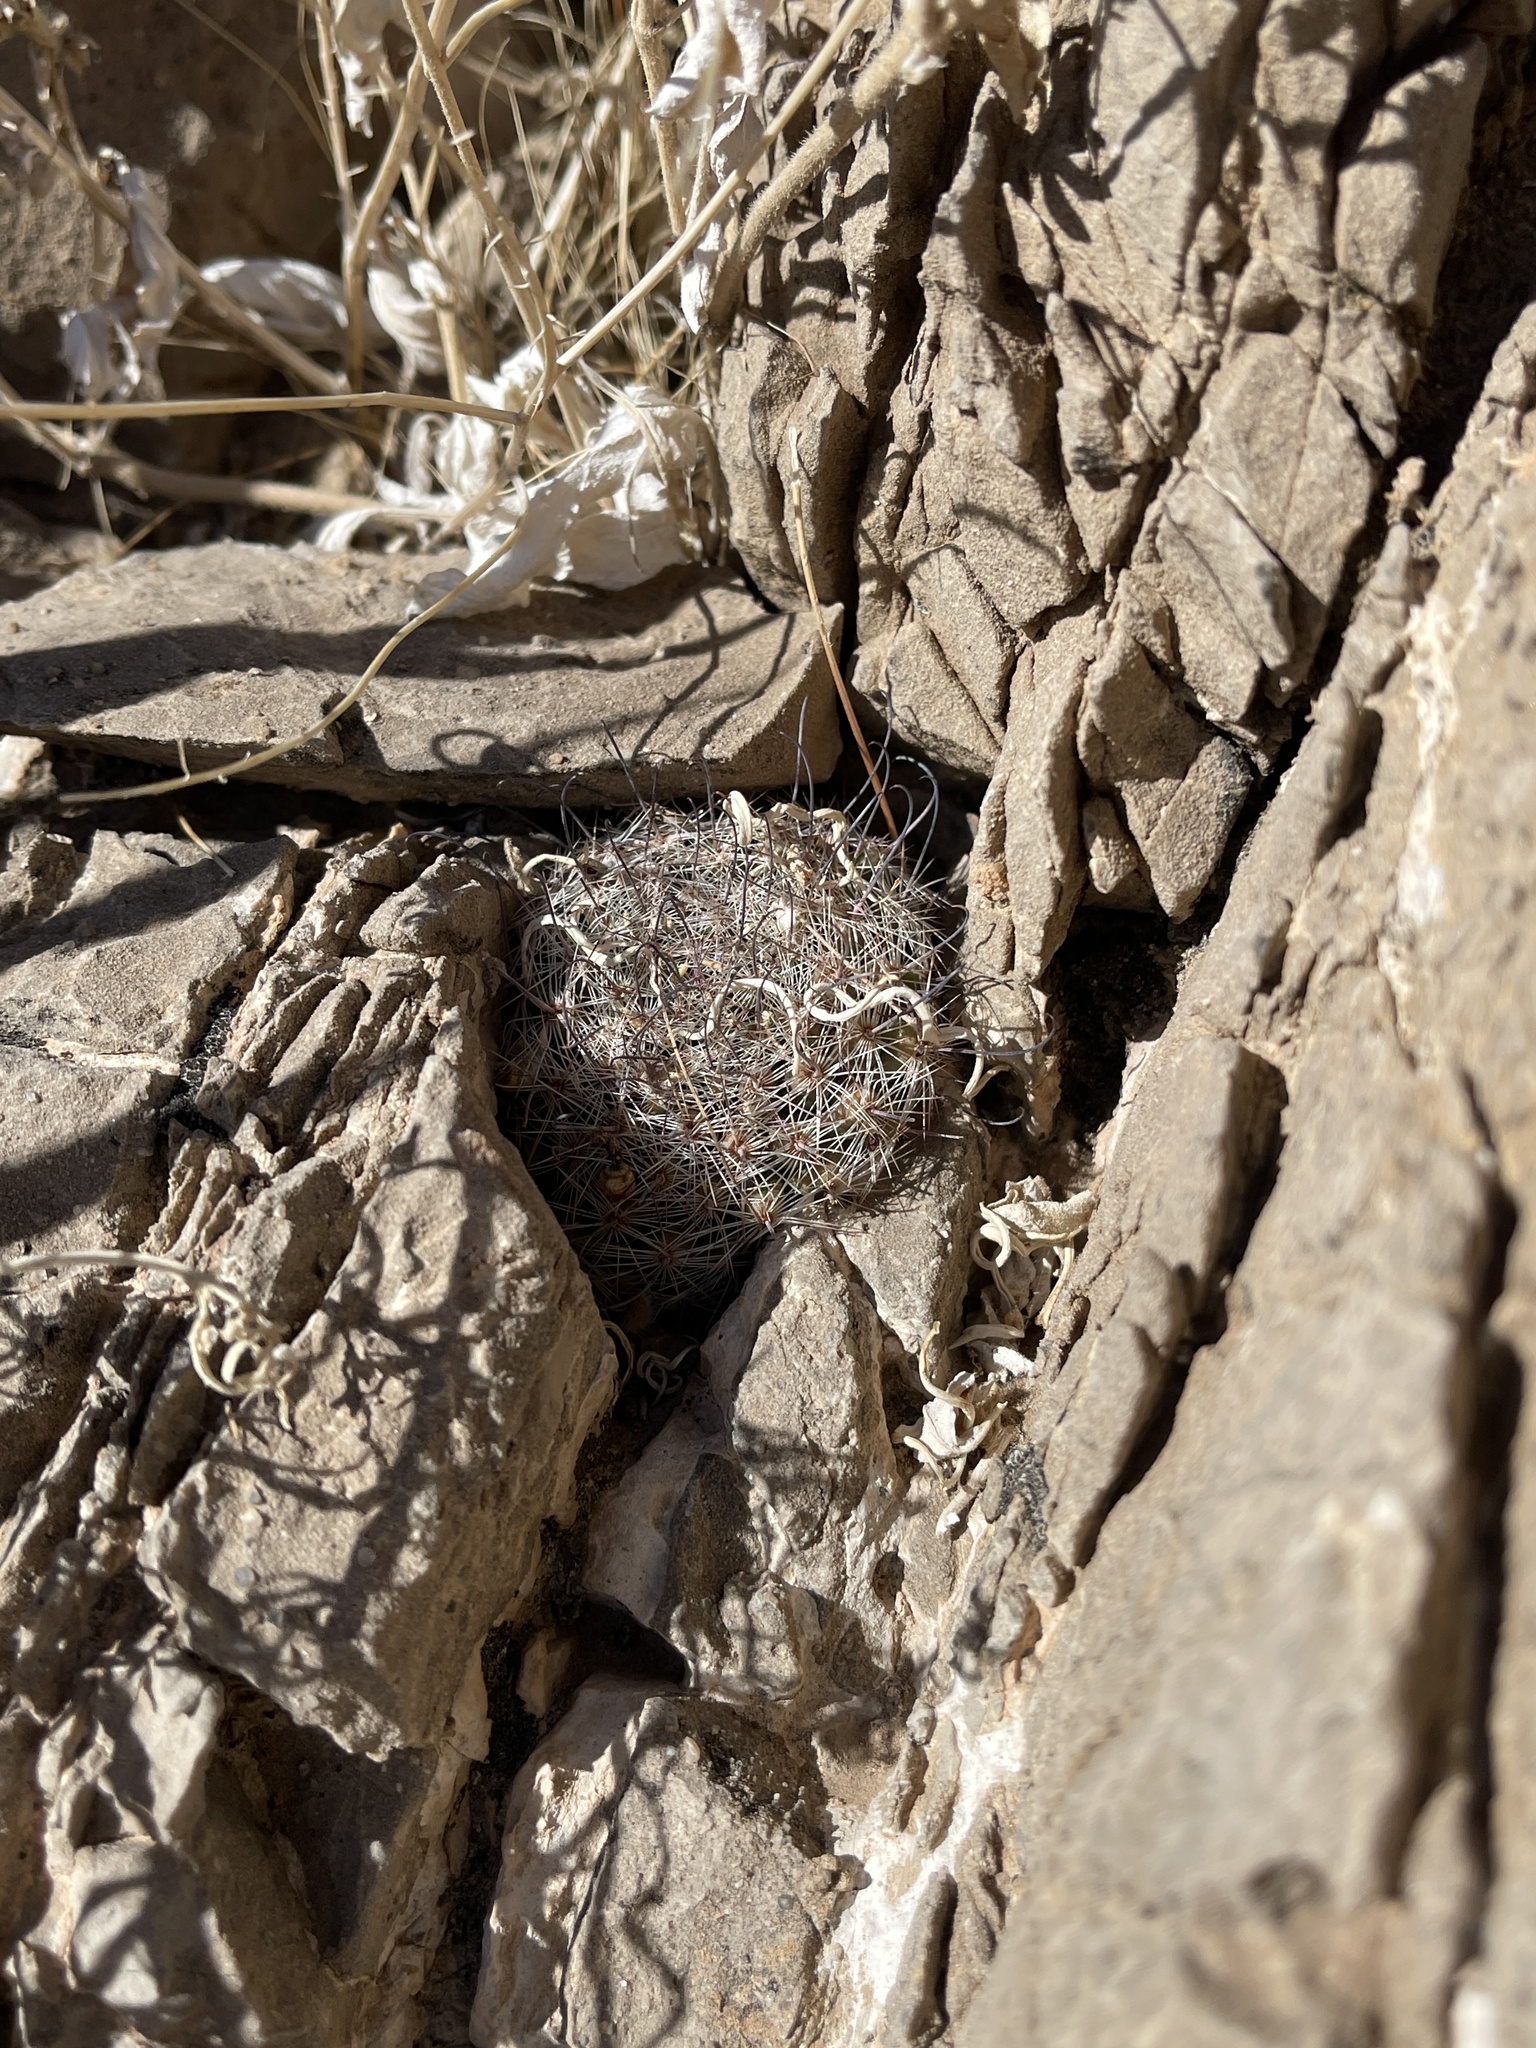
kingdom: Plantae
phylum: Tracheophyta
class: Magnoliopsida
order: Caryophyllales
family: Cactaceae
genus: Cochemiea
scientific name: Cochemiea grahamii
